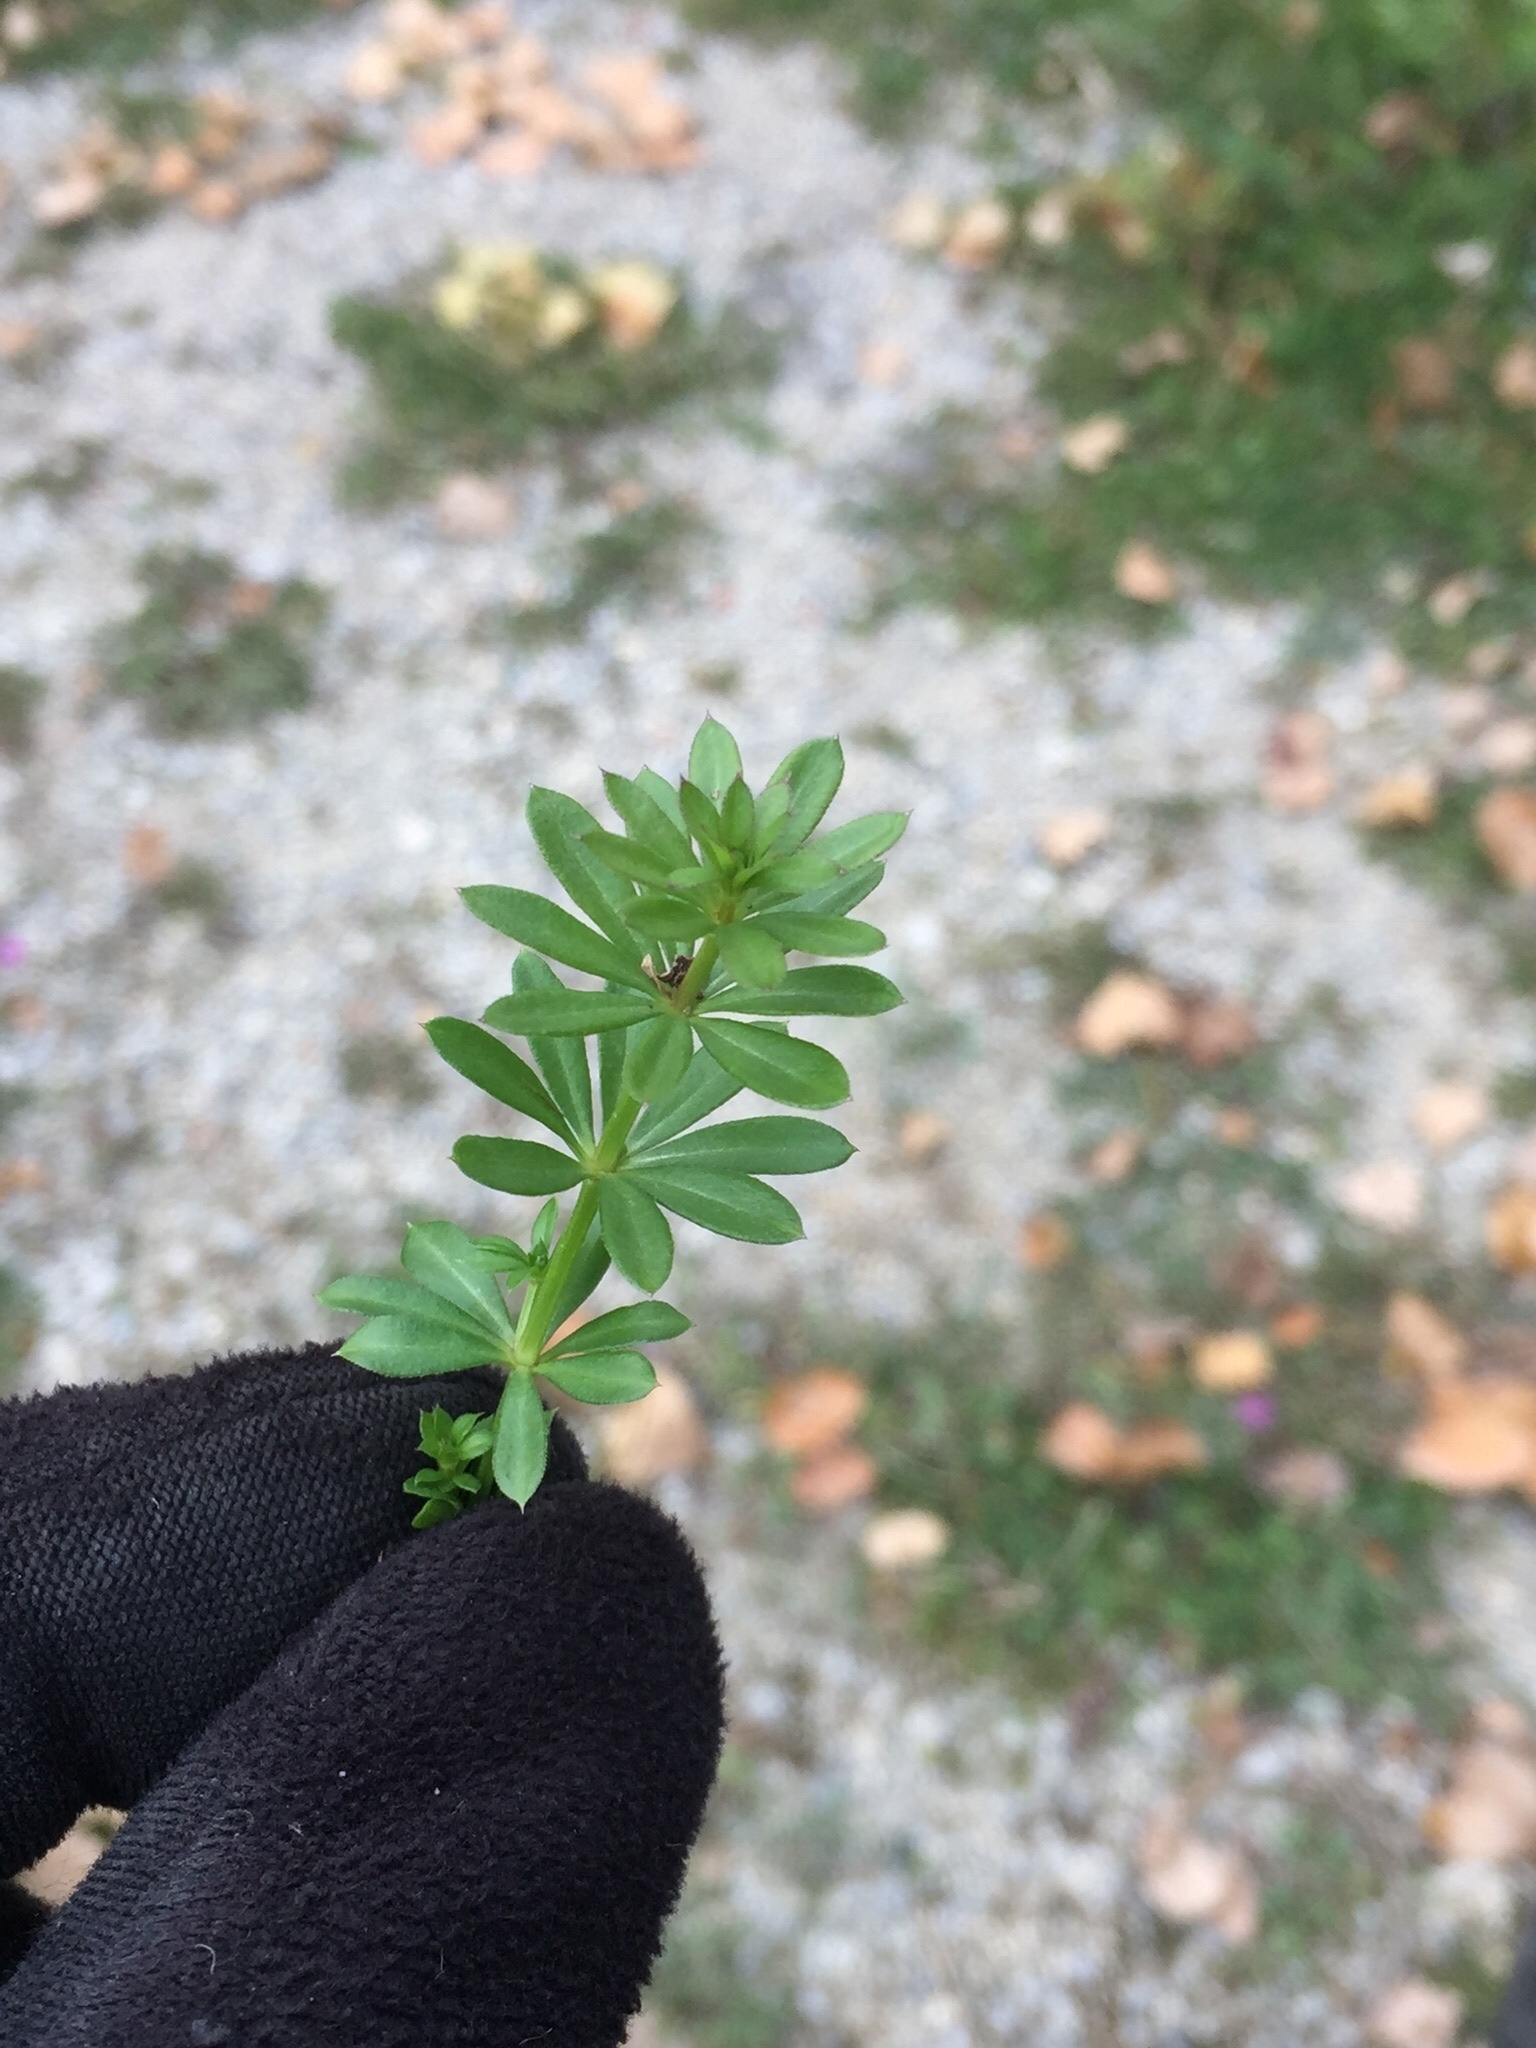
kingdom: Plantae
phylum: Tracheophyta
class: Magnoliopsida
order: Gentianales
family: Rubiaceae
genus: Galium
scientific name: Galium mollugo
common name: Hedge bedstraw
